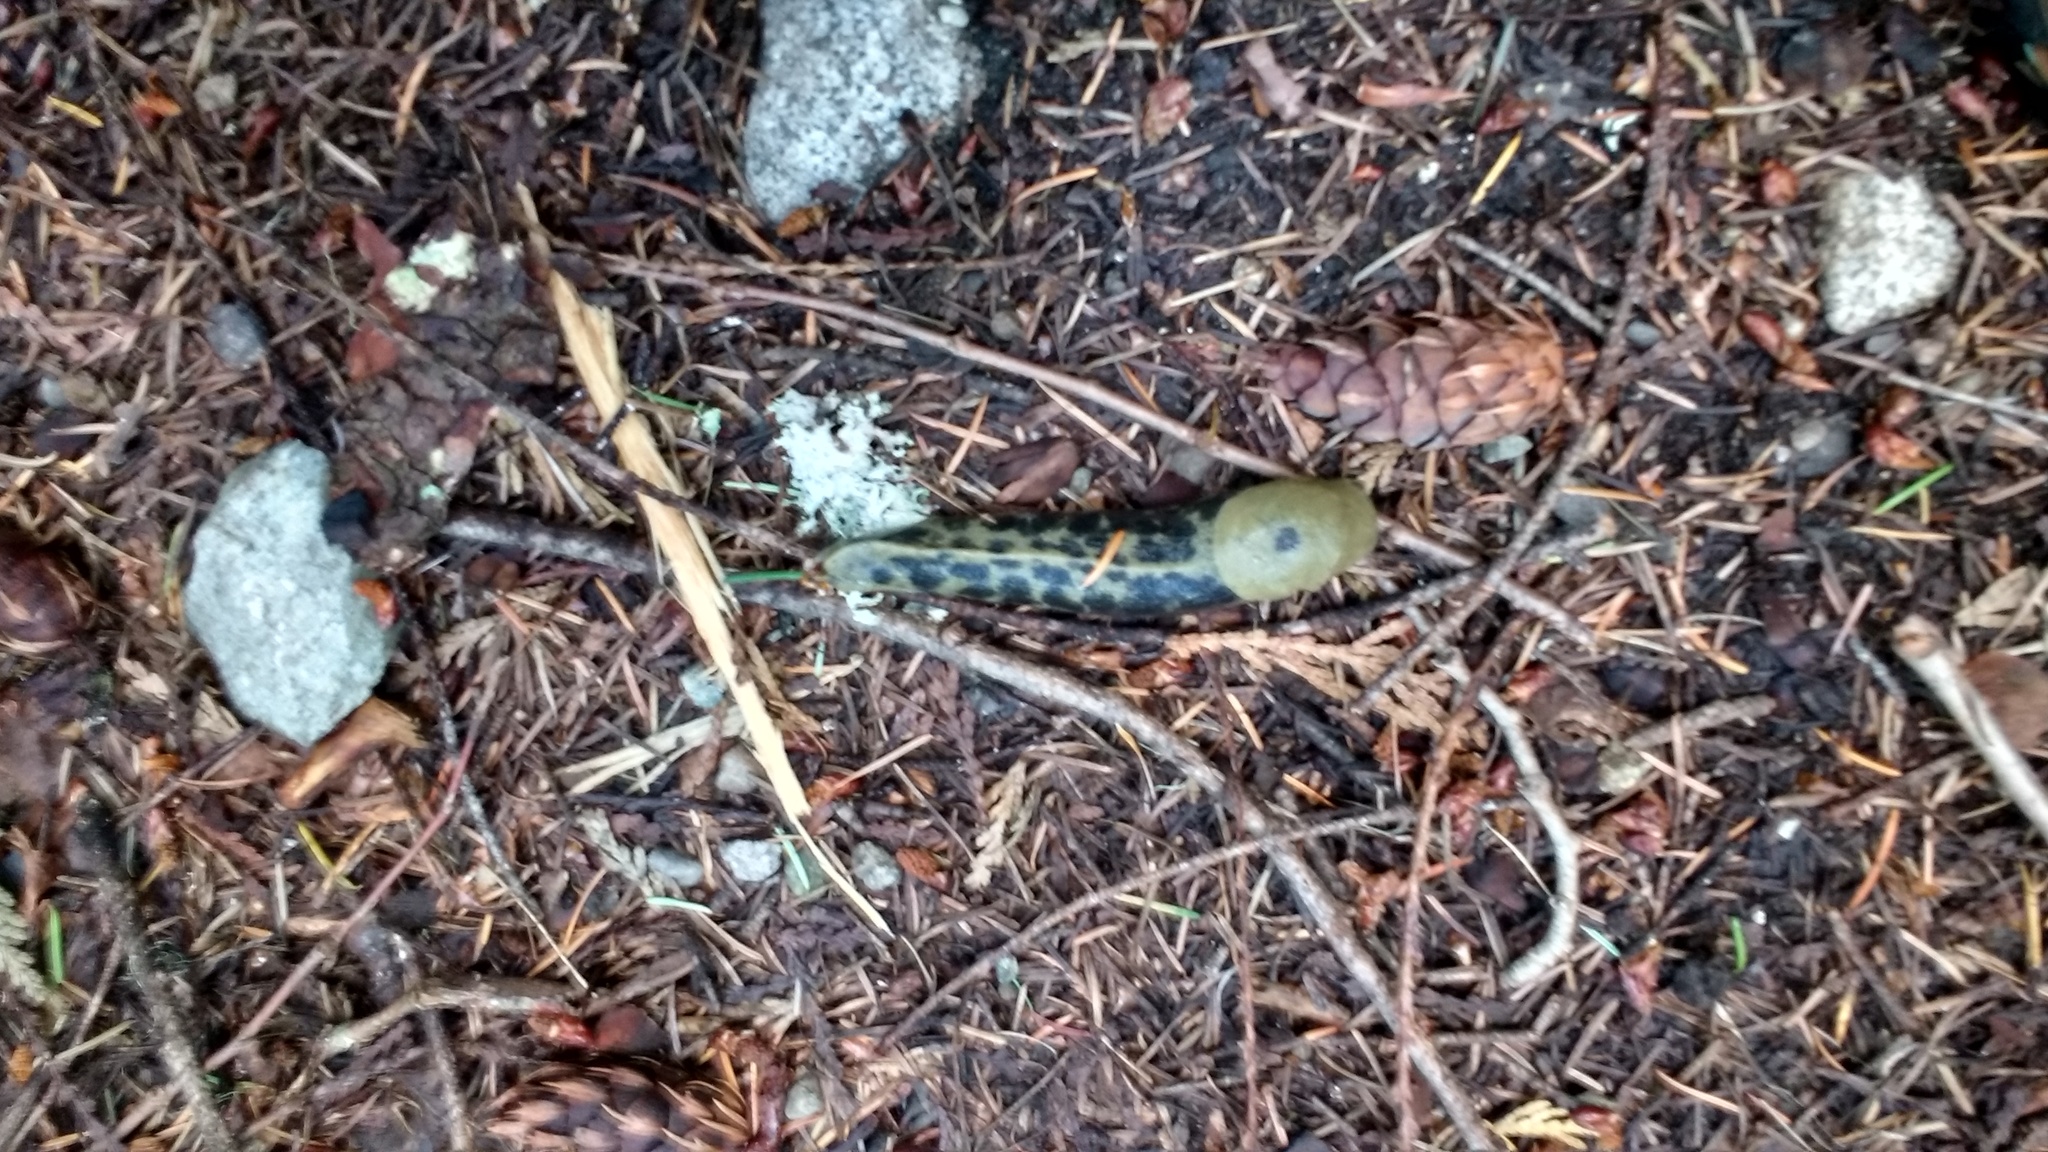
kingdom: Animalia
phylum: Mollusca
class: Gastropoda
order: Stylommatophora
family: Ariolimacidae
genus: Ariolimax
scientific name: Ariolimax columbianus
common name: Pacific banana slug
